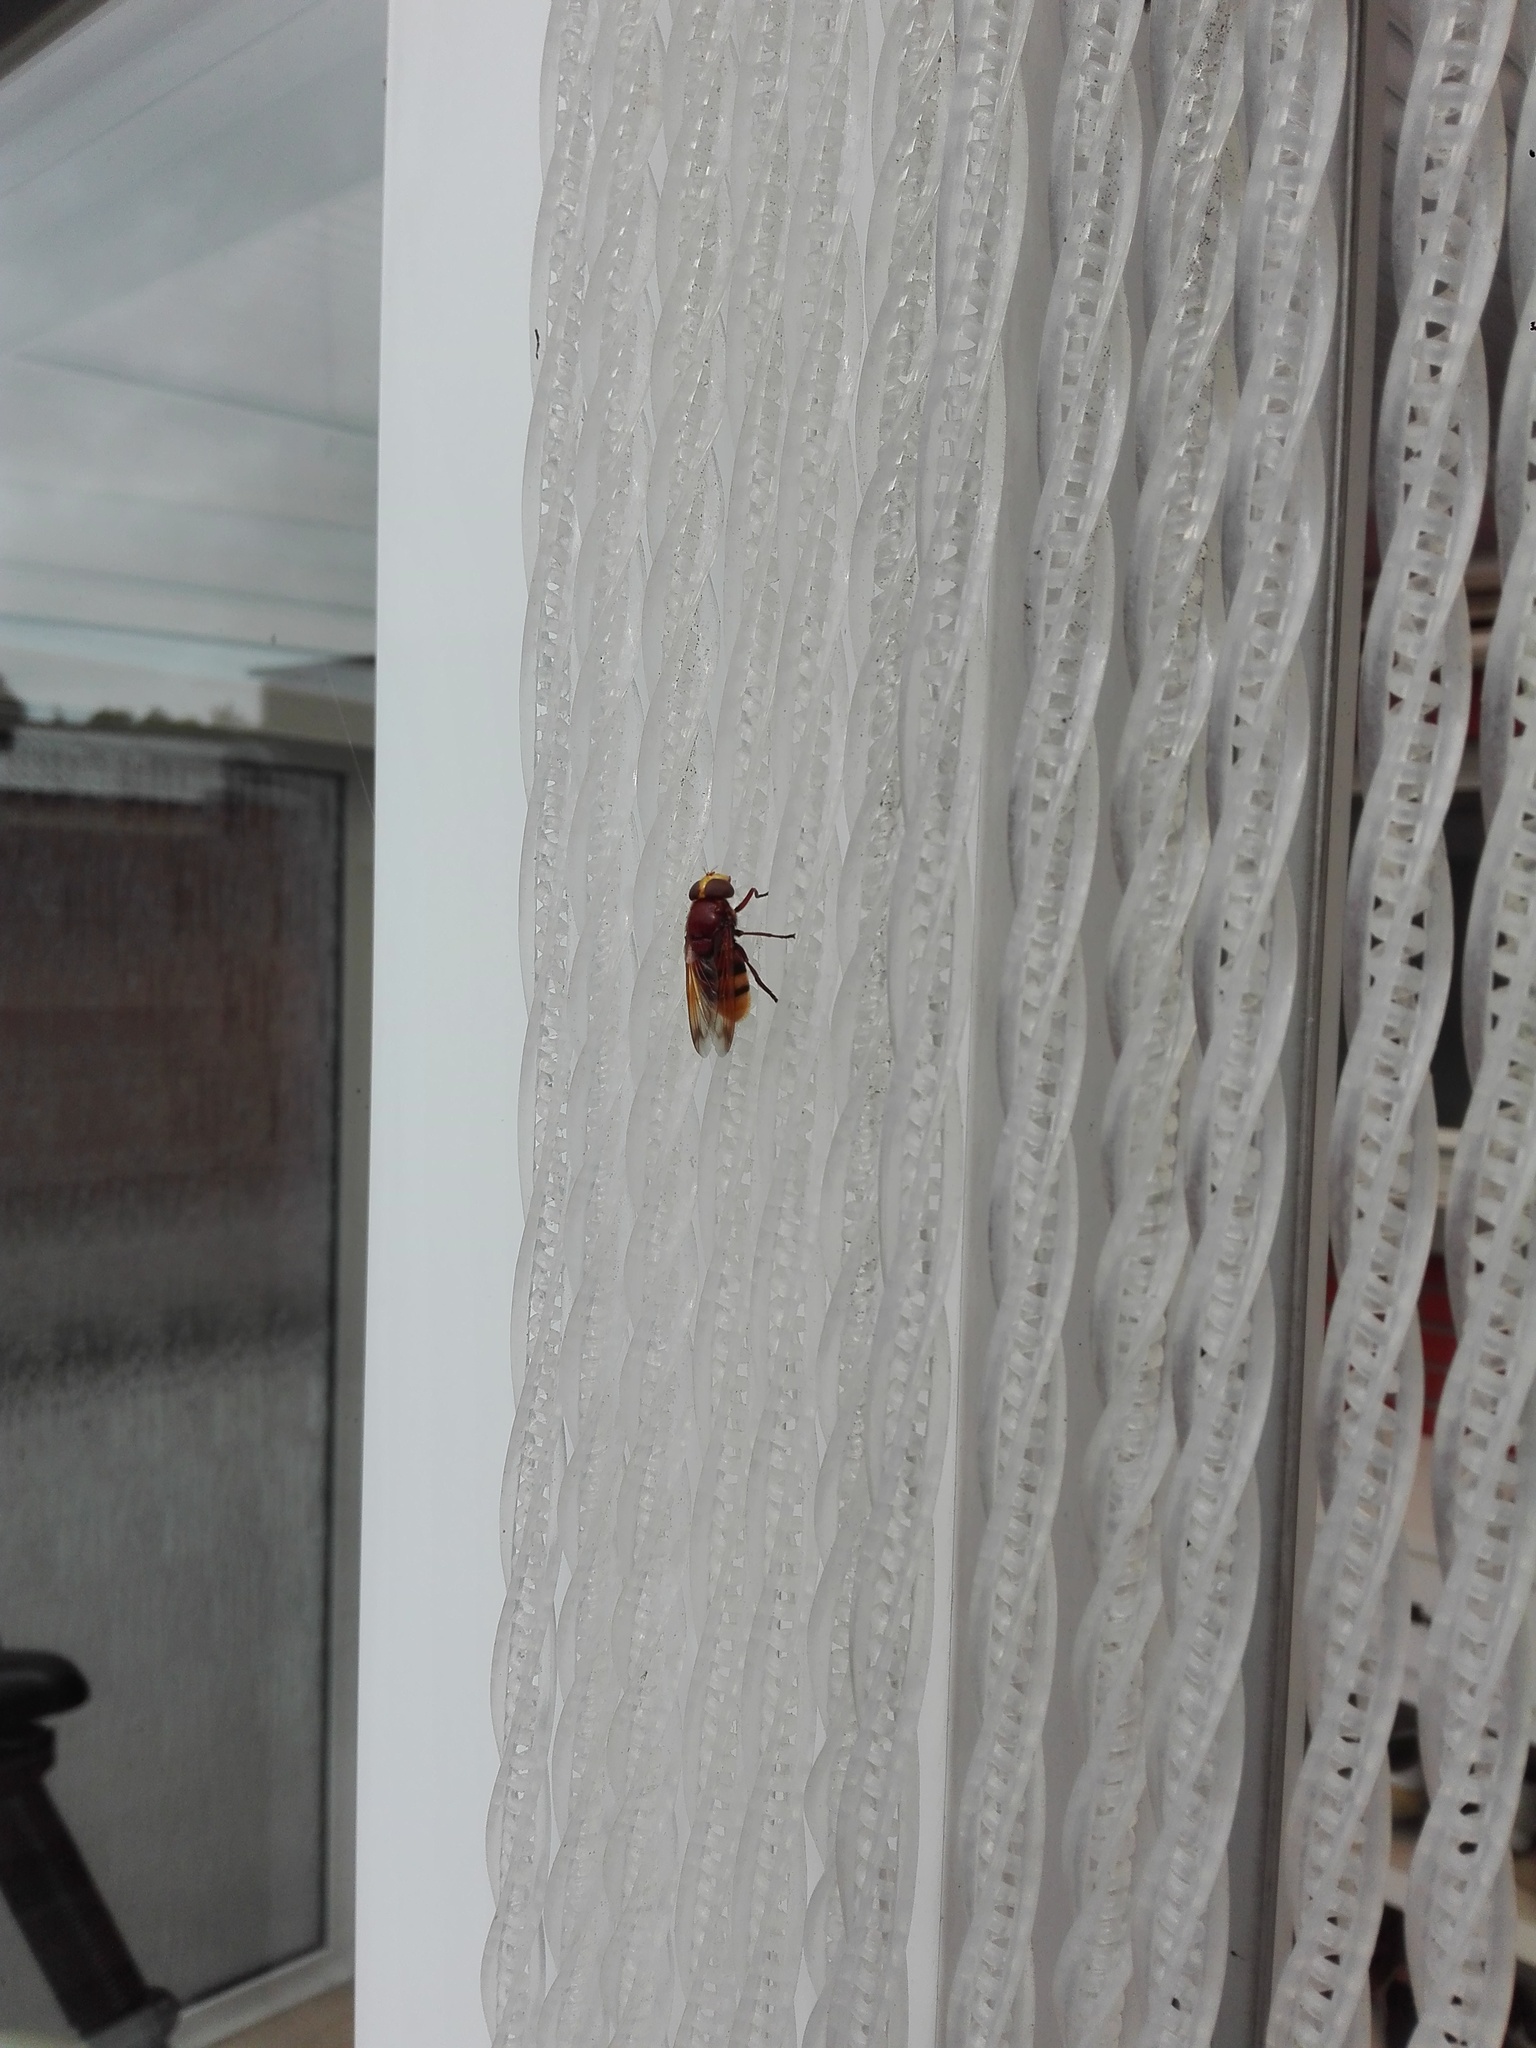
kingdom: Animalia
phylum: Arthropoda
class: Insecta
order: Diptera
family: Syrphidae
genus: Volucella
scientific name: Volucella zonaria
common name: Hornet hoverfly
